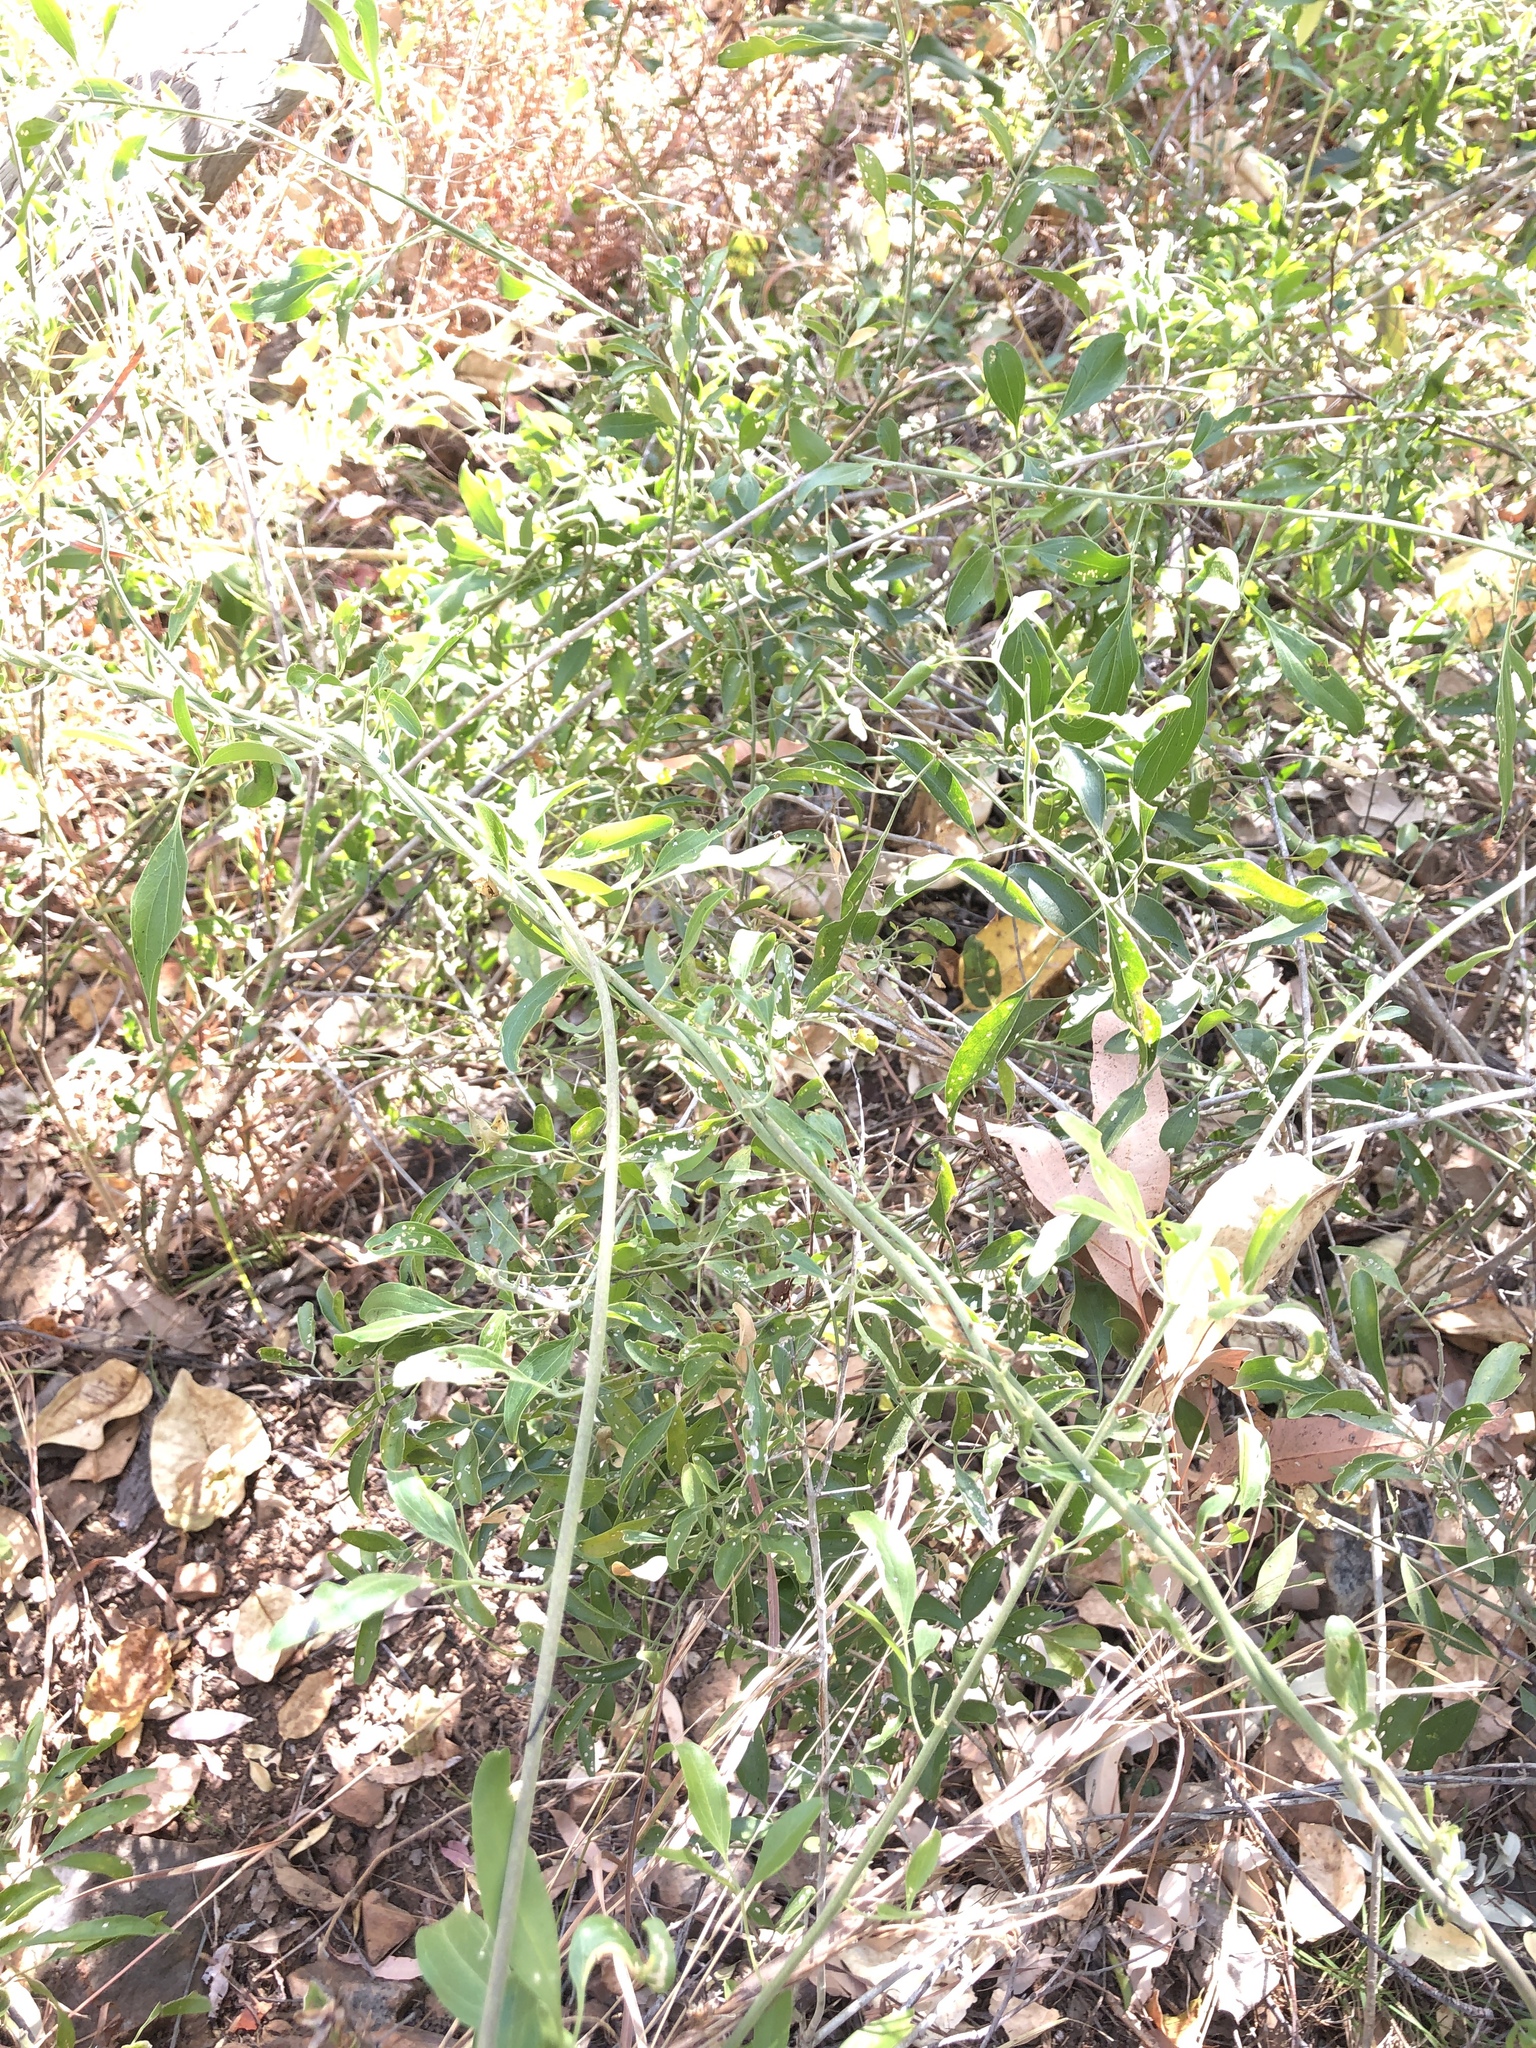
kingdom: Plantae
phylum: Tracheophyta
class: Magnoliopsida
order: Lamiales
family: Oleaceae
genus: Jasminum
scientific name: Jasminum didymum
